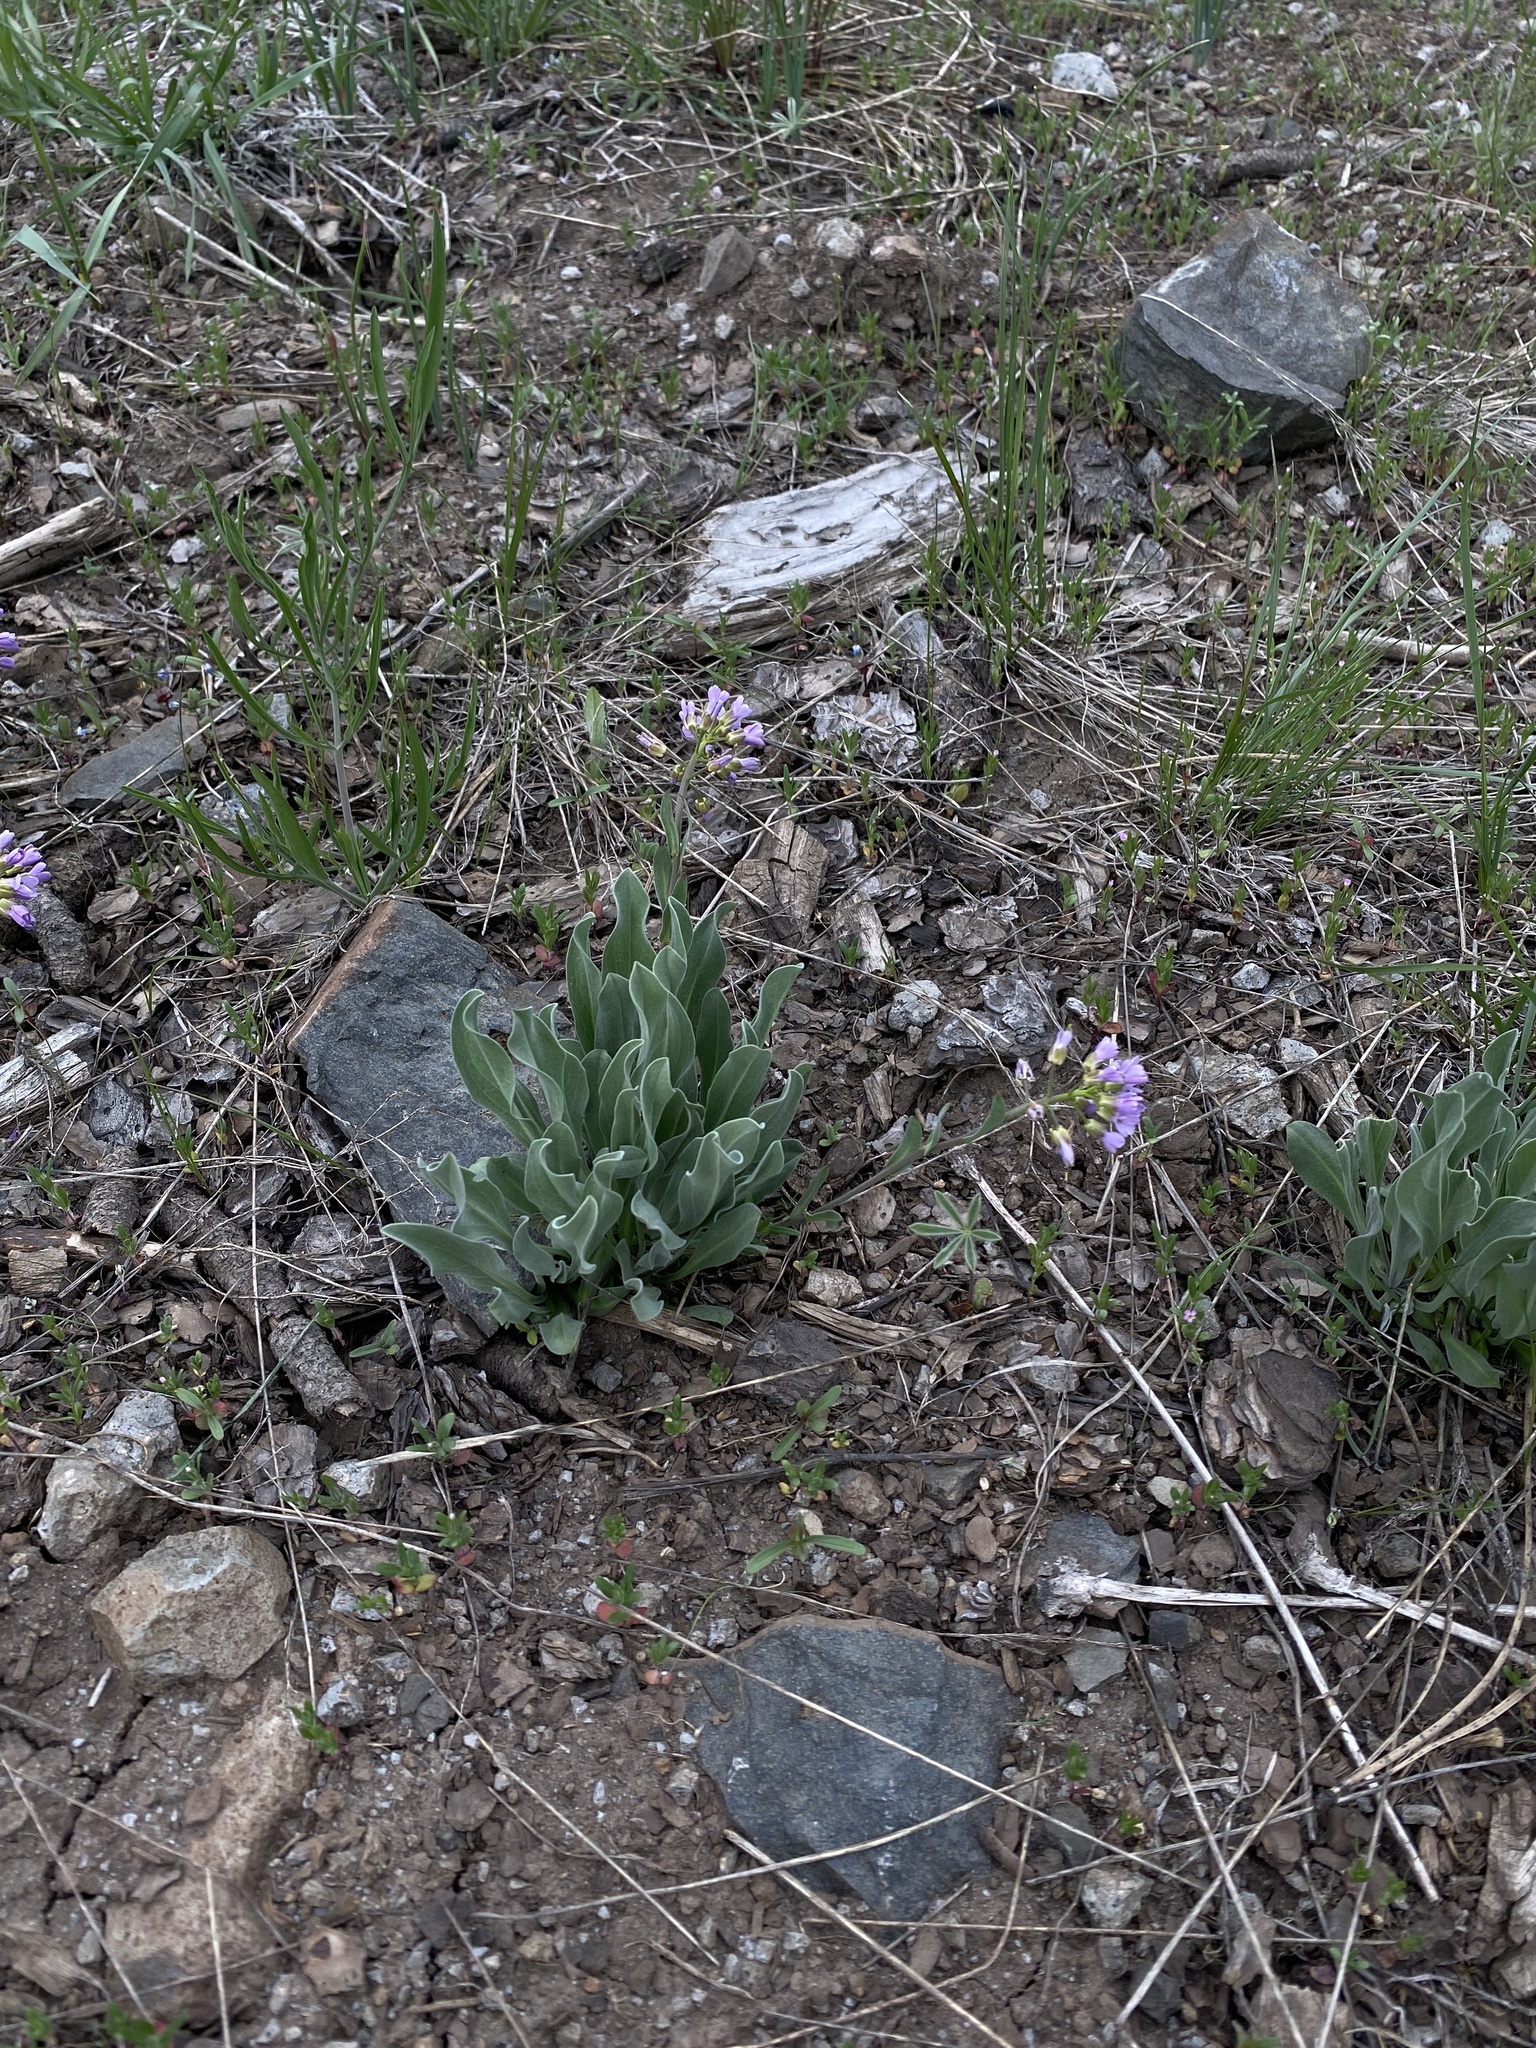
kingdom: Plantae
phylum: Tracheophyta
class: Magnoliopsida
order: Brassicales
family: Brassicaceae
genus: Phoenicaulis
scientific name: Phoenicaulis cheiranthoides
